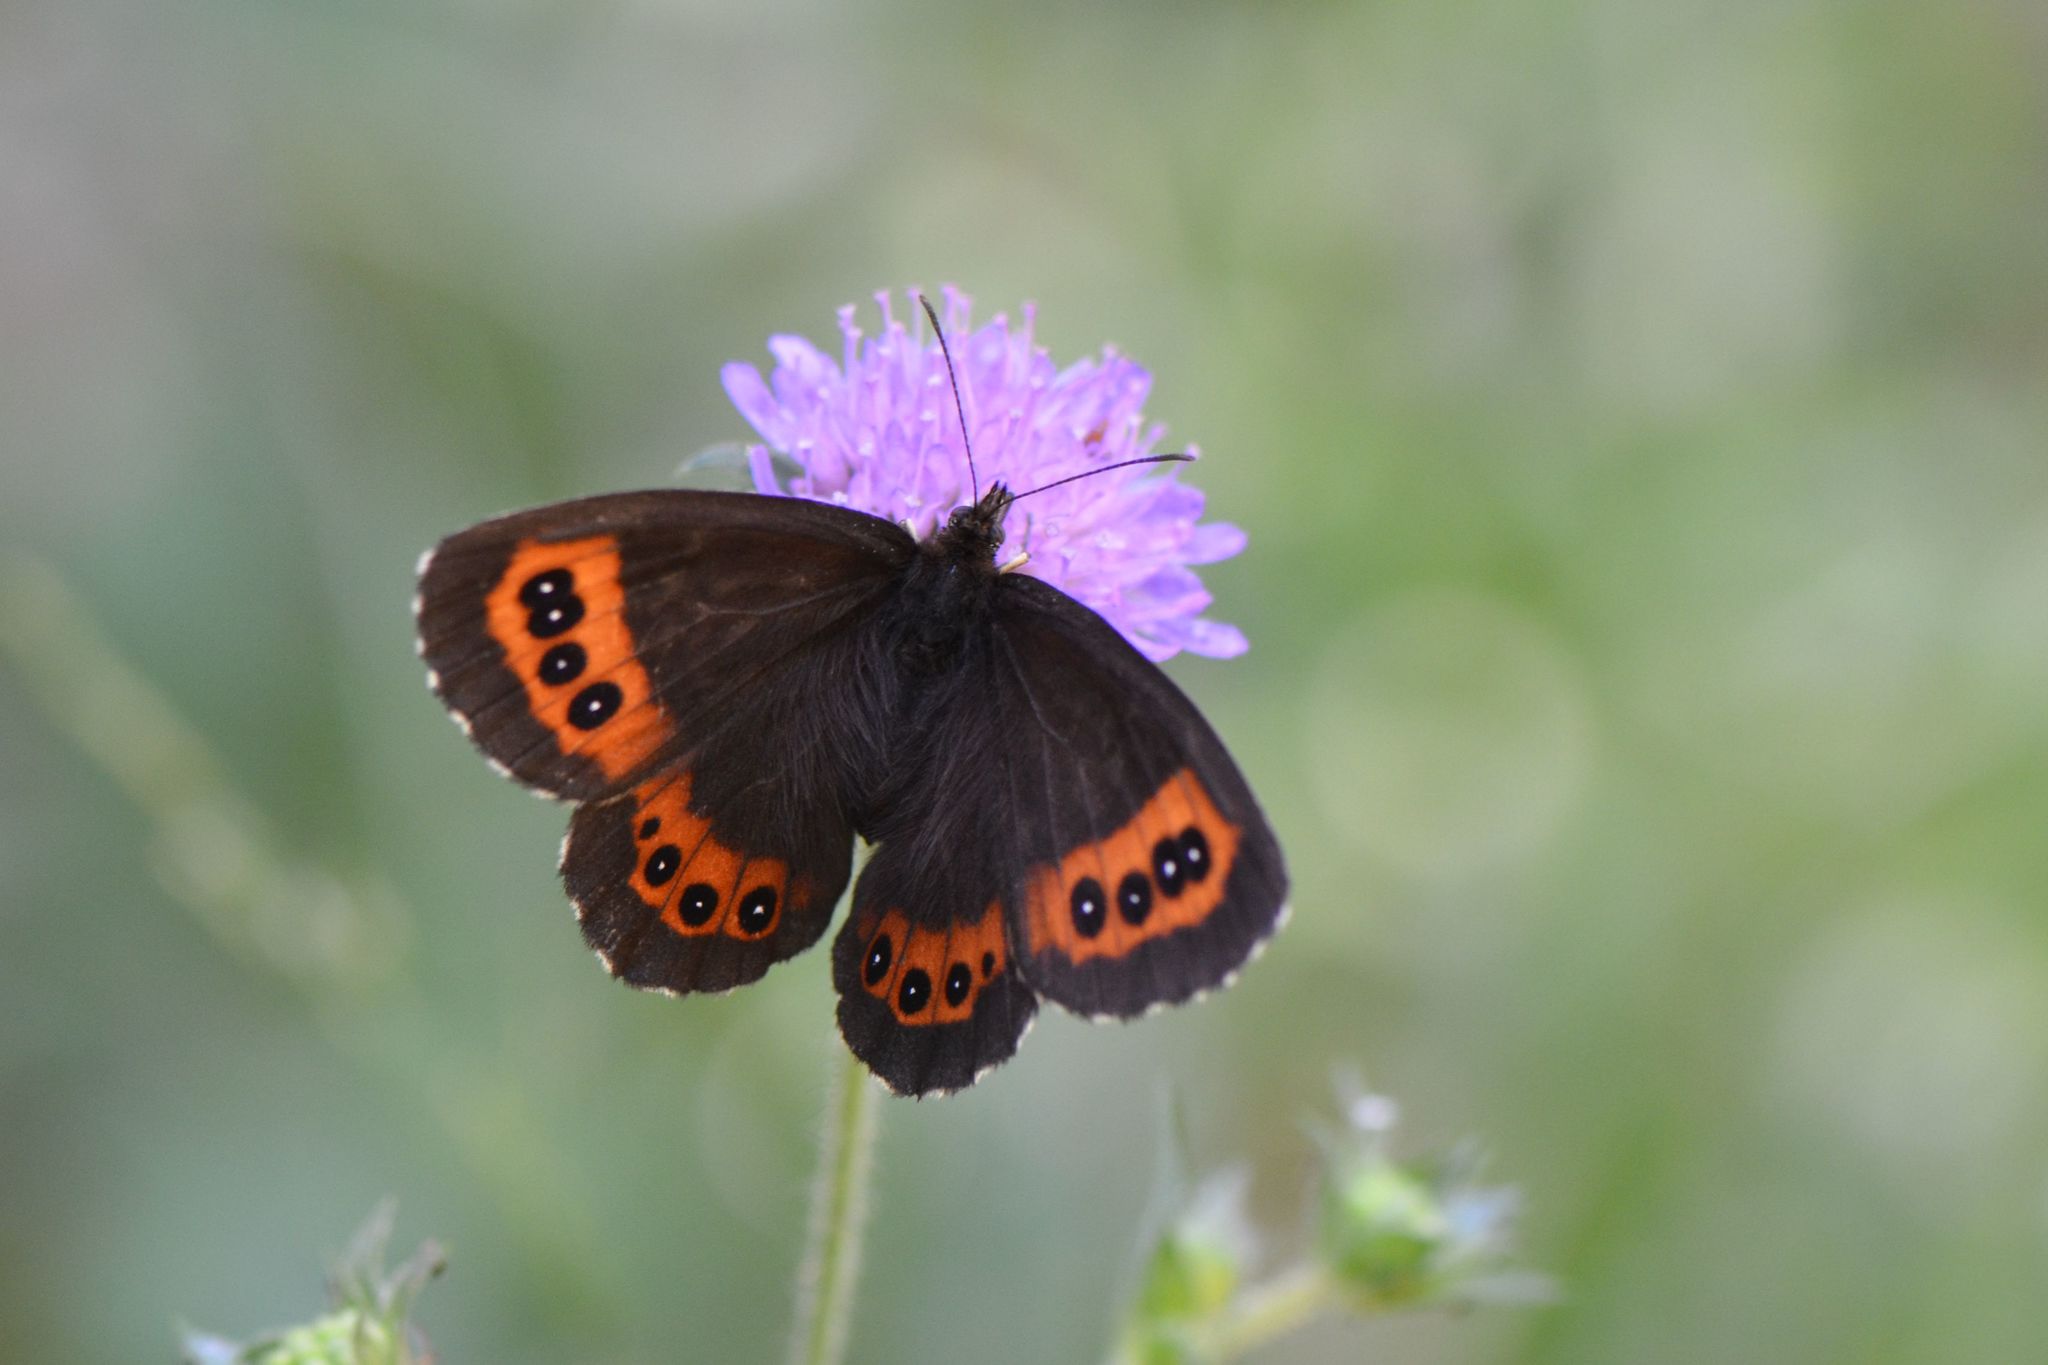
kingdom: Animalia
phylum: Arthropoda
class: Insecta
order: Lepidoptera
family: Nymphalidae
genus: Erebia
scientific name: Erebia ligea
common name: Arran brown
